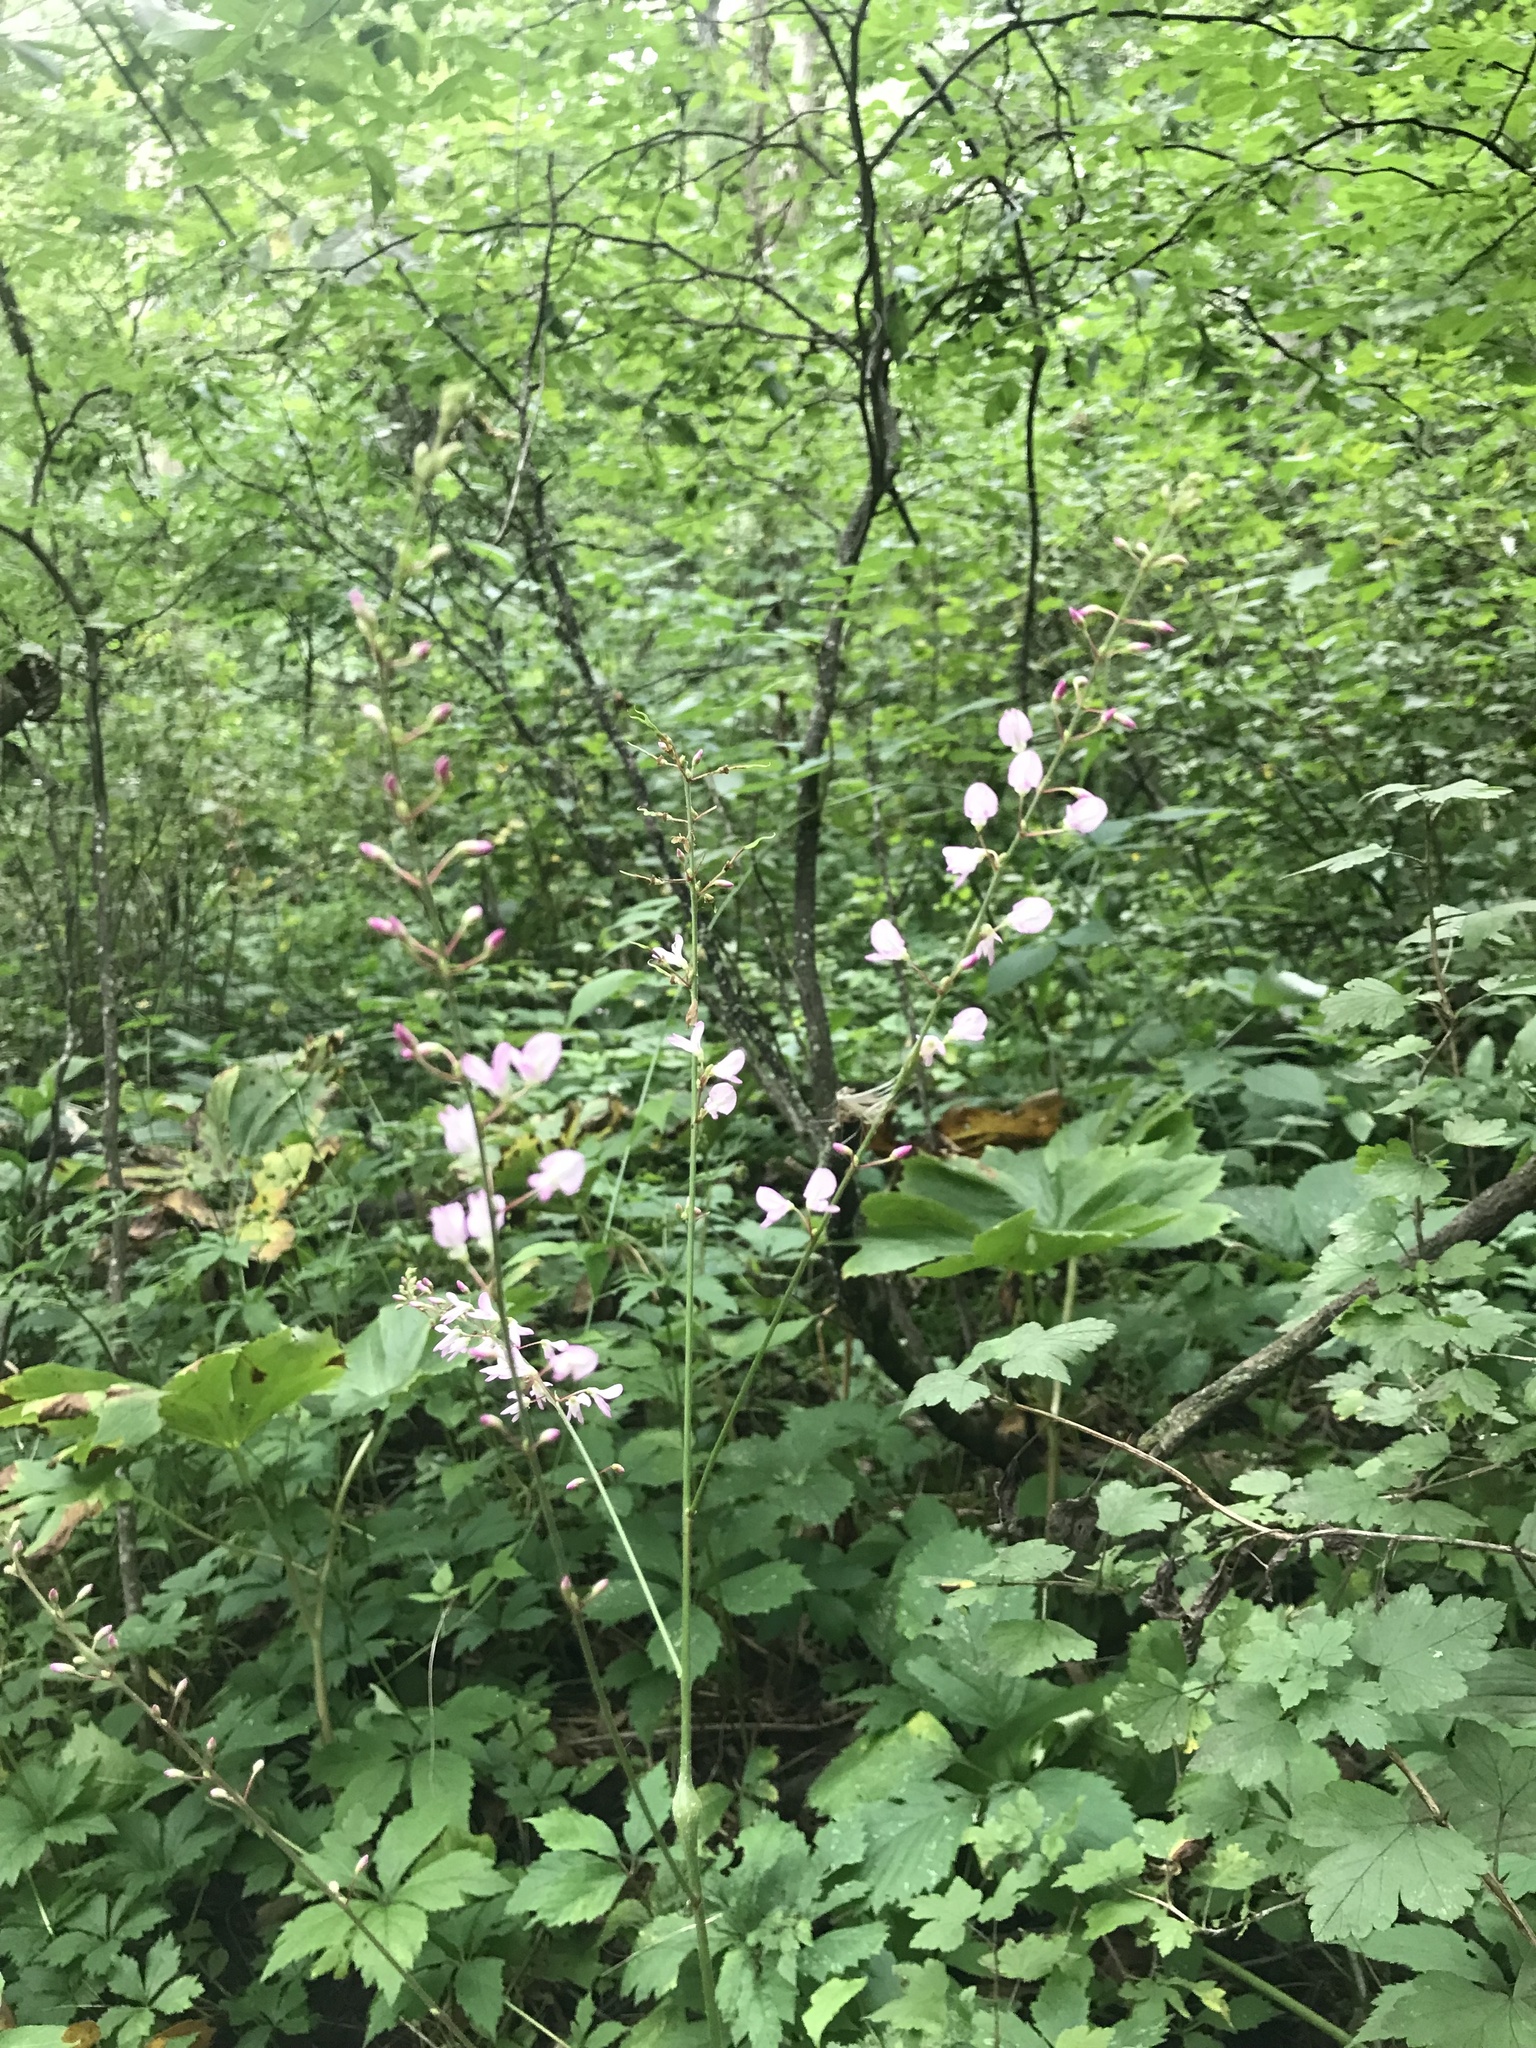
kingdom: Plantae
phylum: Tracheophyta
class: Magnoliopsida
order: Fabales
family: Fabaceae
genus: Hylodesmum
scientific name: Hylodesmum glutinosum
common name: Clustered-leaved tick-trefoil
